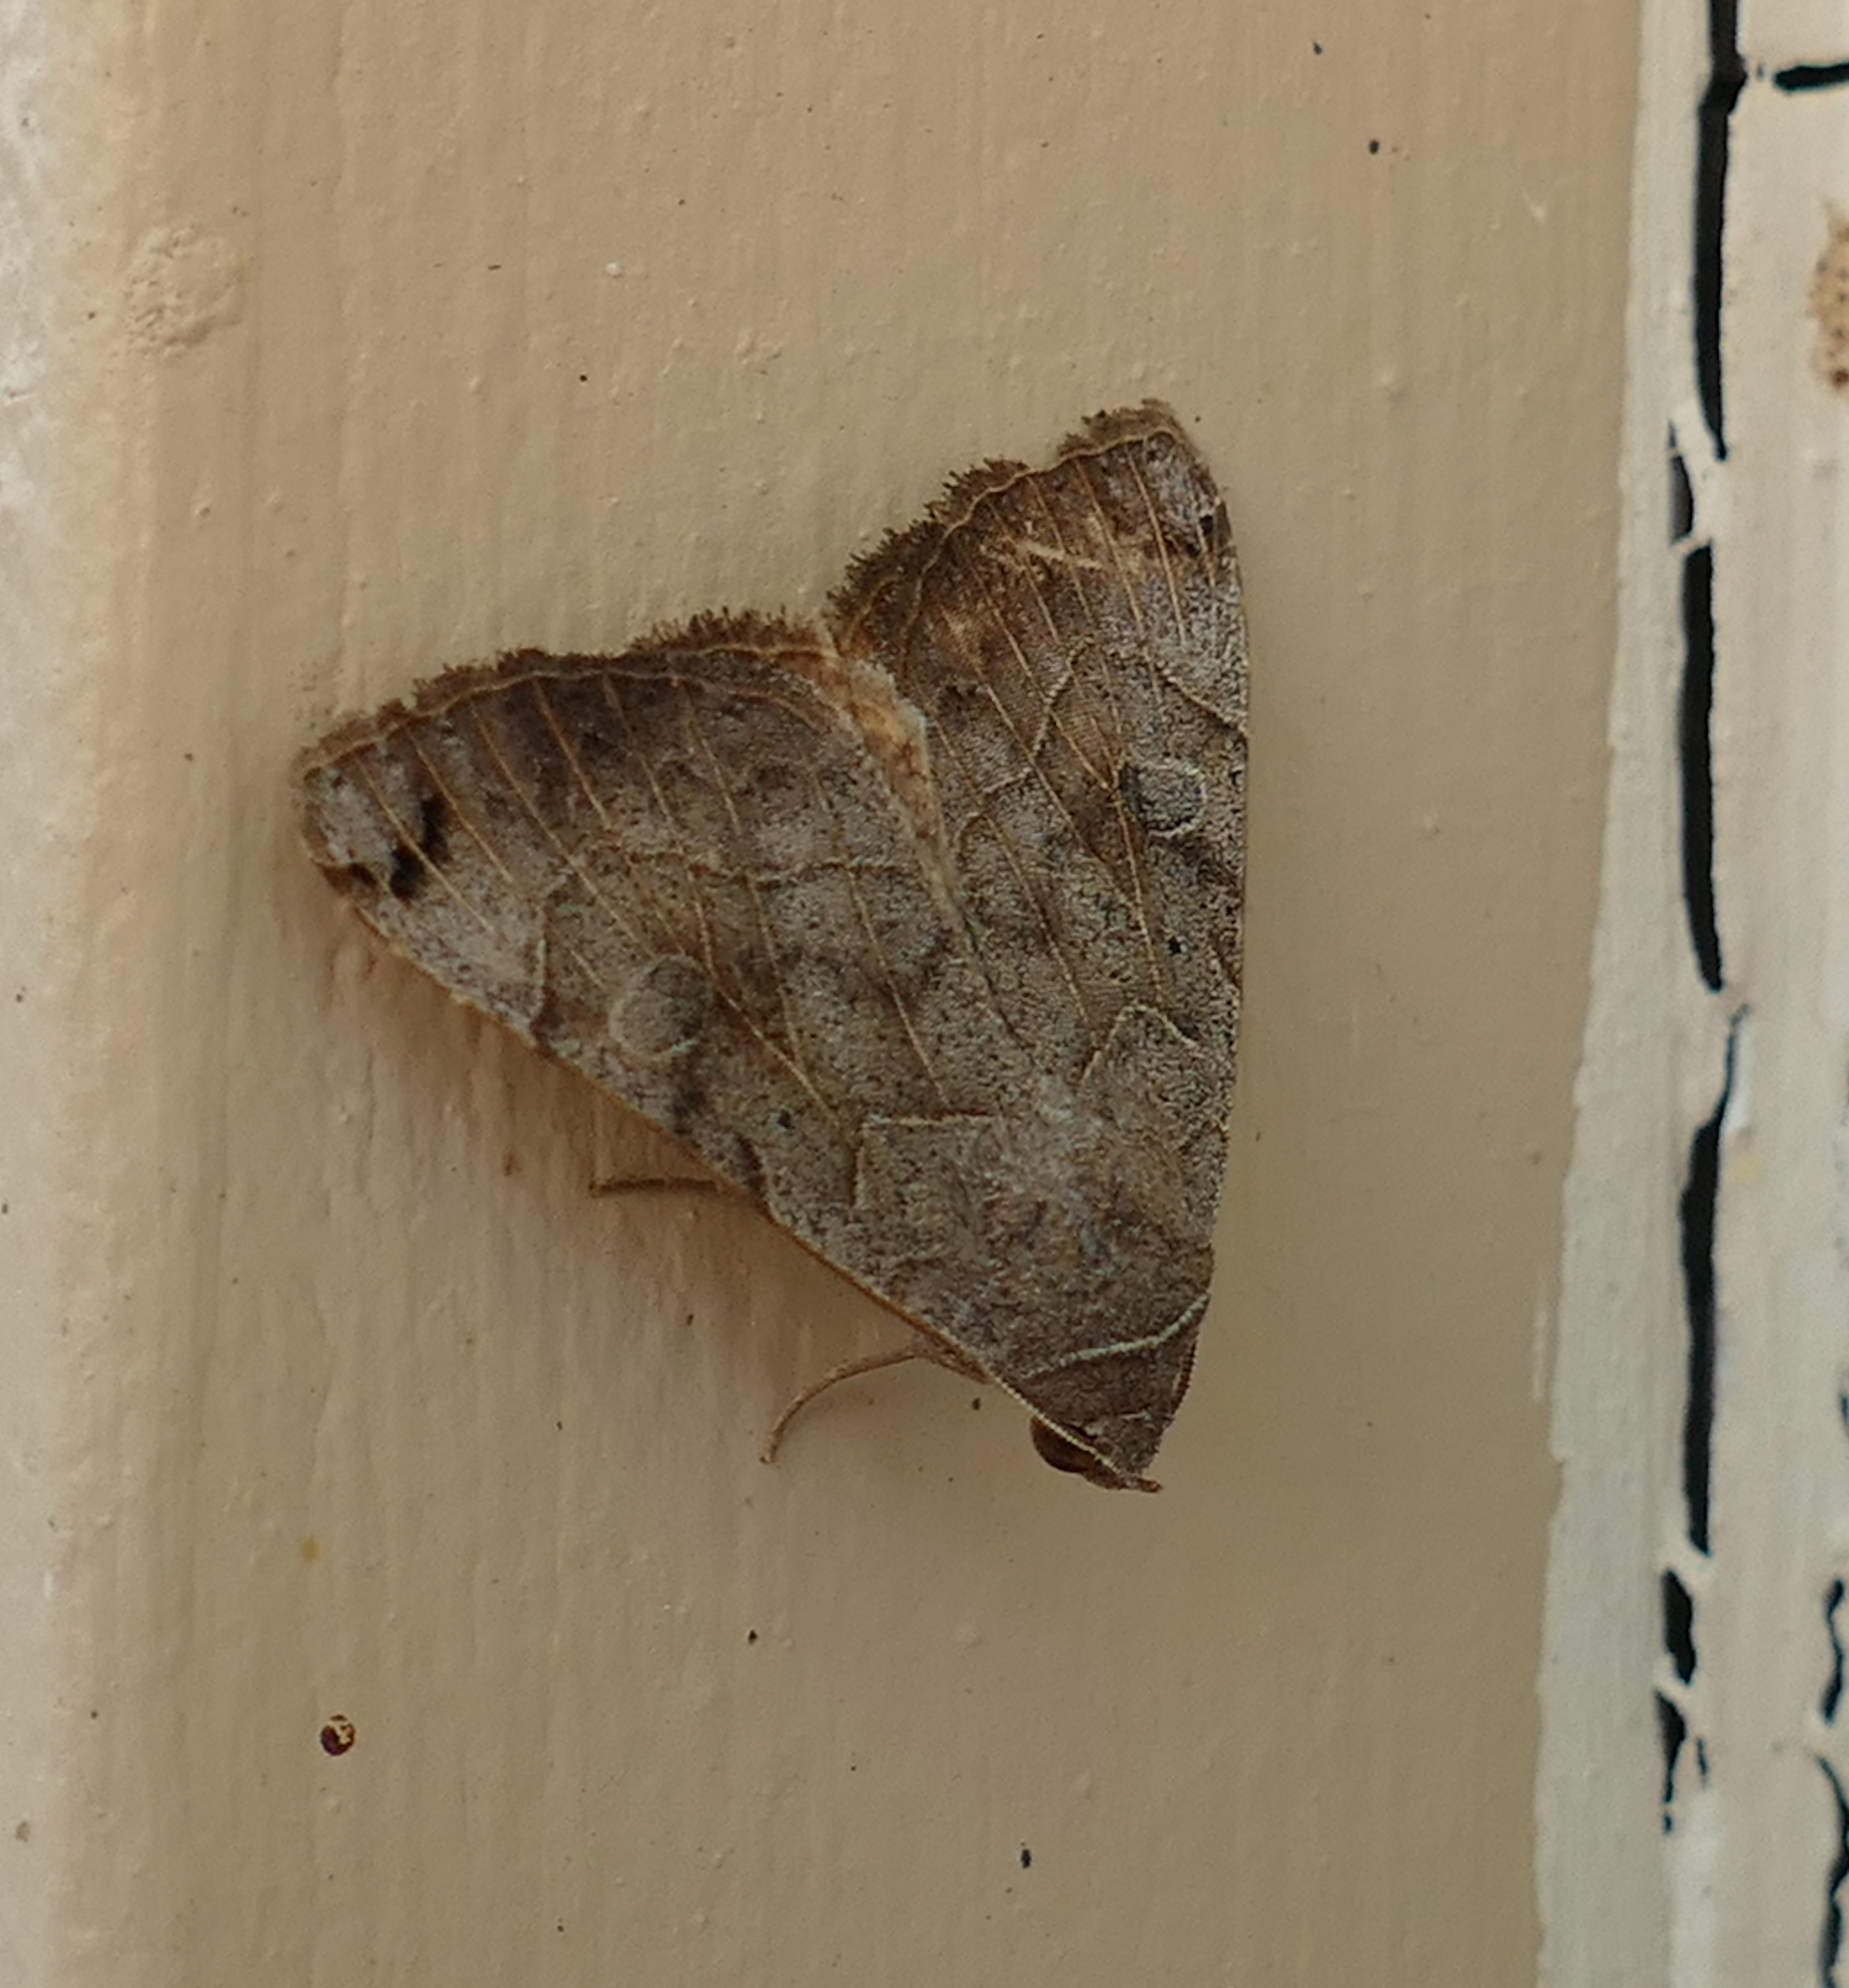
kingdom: Animalia
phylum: Arthropoda
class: Insecta
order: Lepidoptera
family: Erebidae
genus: Isogona
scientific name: Isogona scindens
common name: Owlet moth
